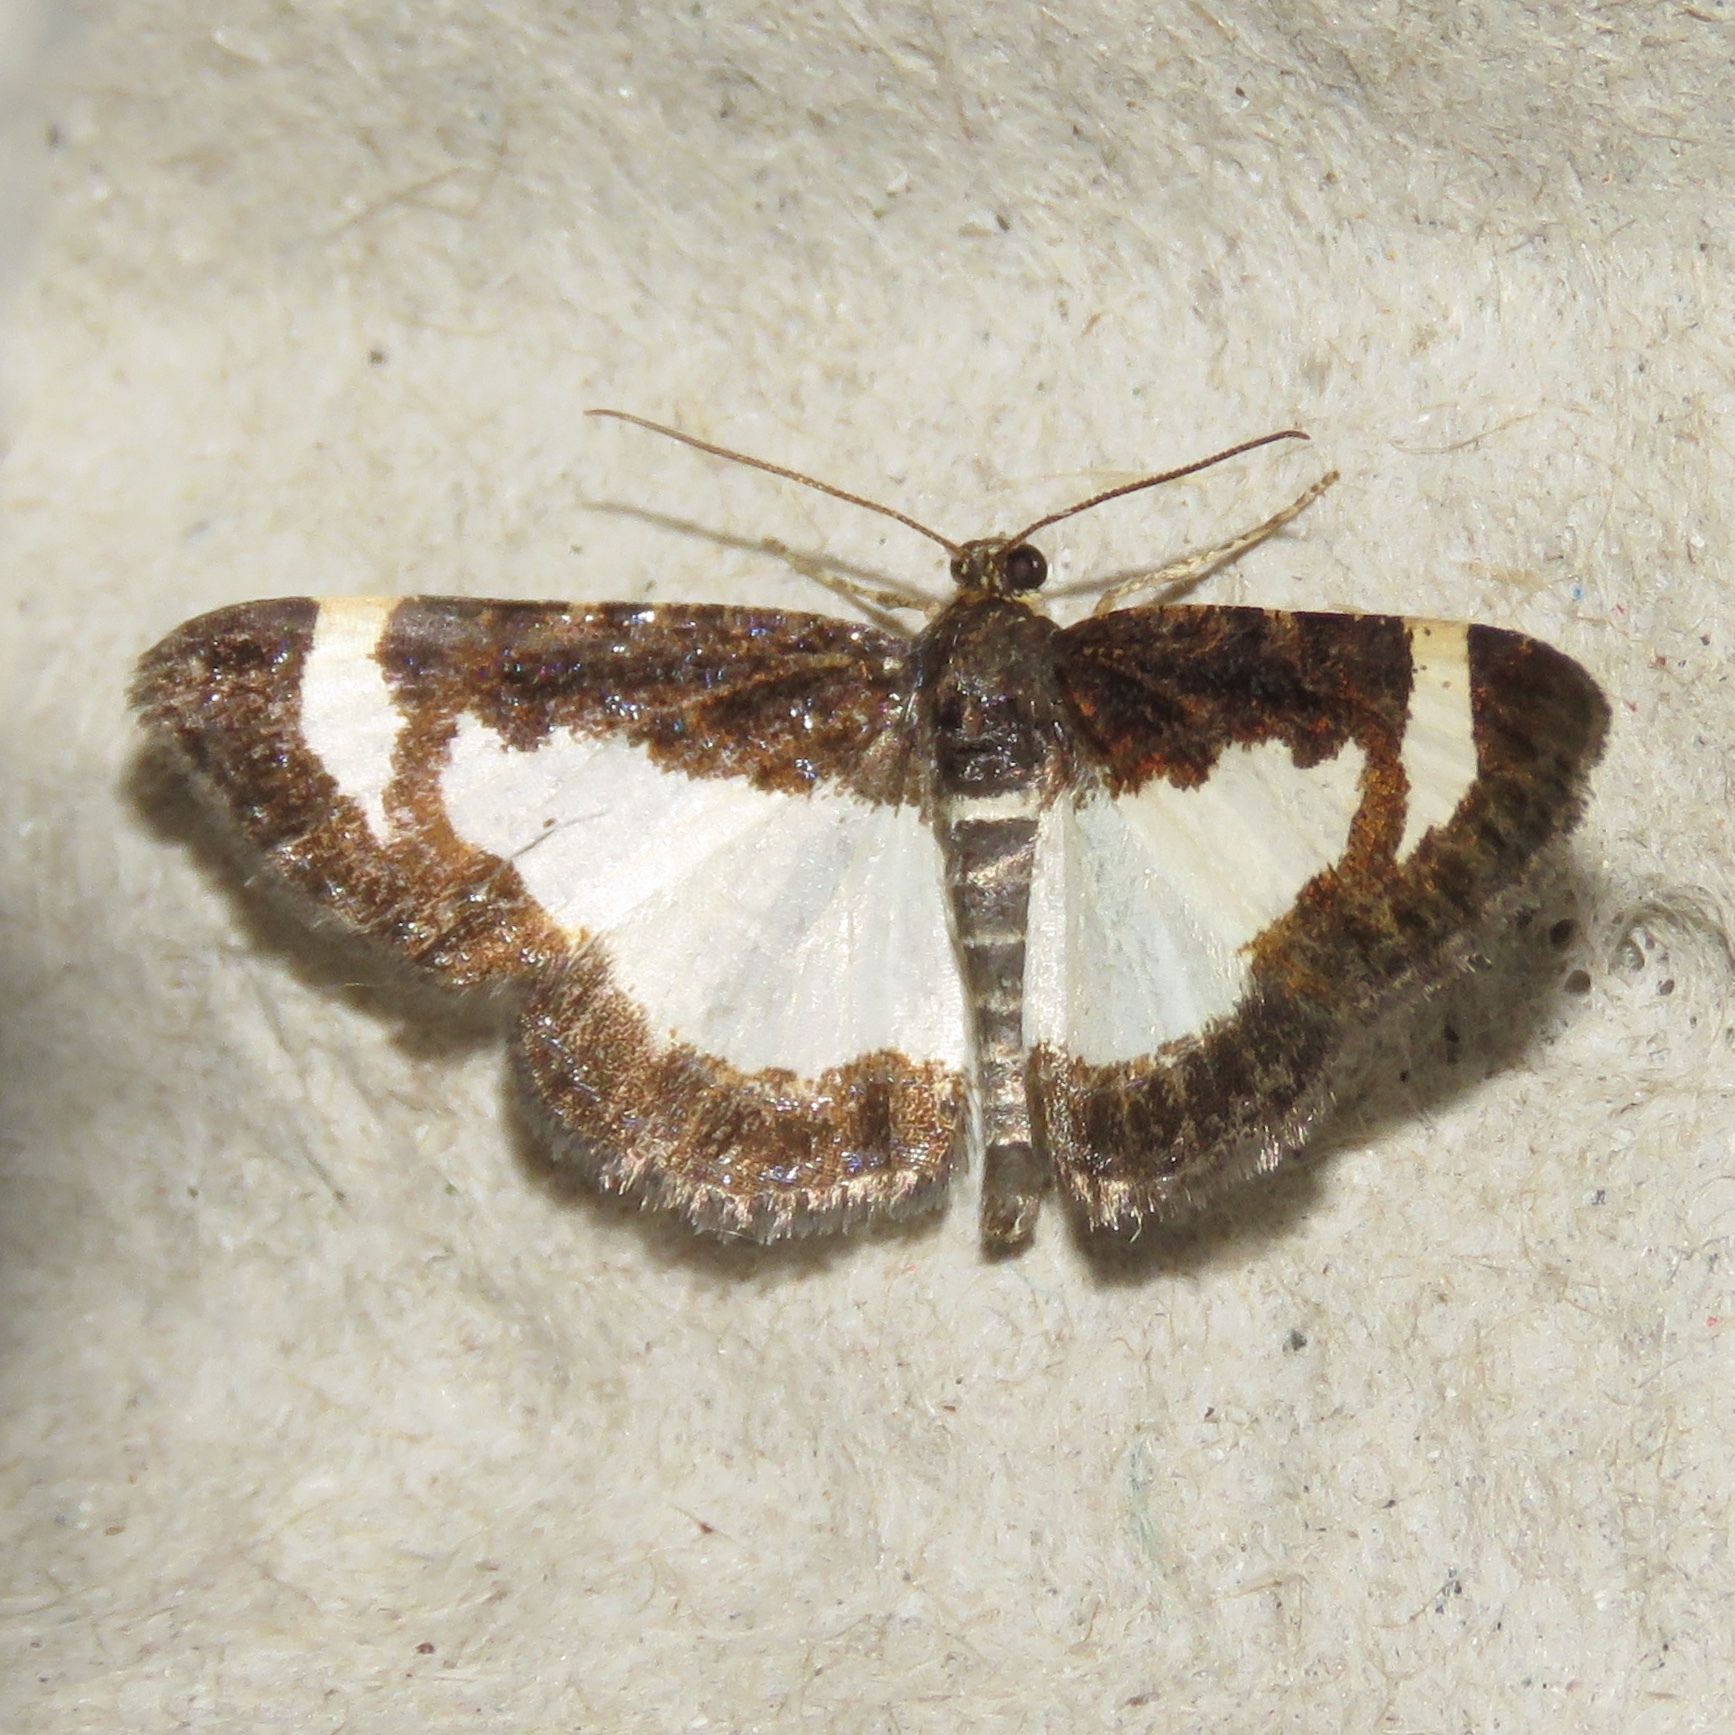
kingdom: Animalia
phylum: Arthropoda
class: Insecta
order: Lepidoptera
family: Geometridae
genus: Heliomata
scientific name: Heliomata cycladata
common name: Common spring moth
